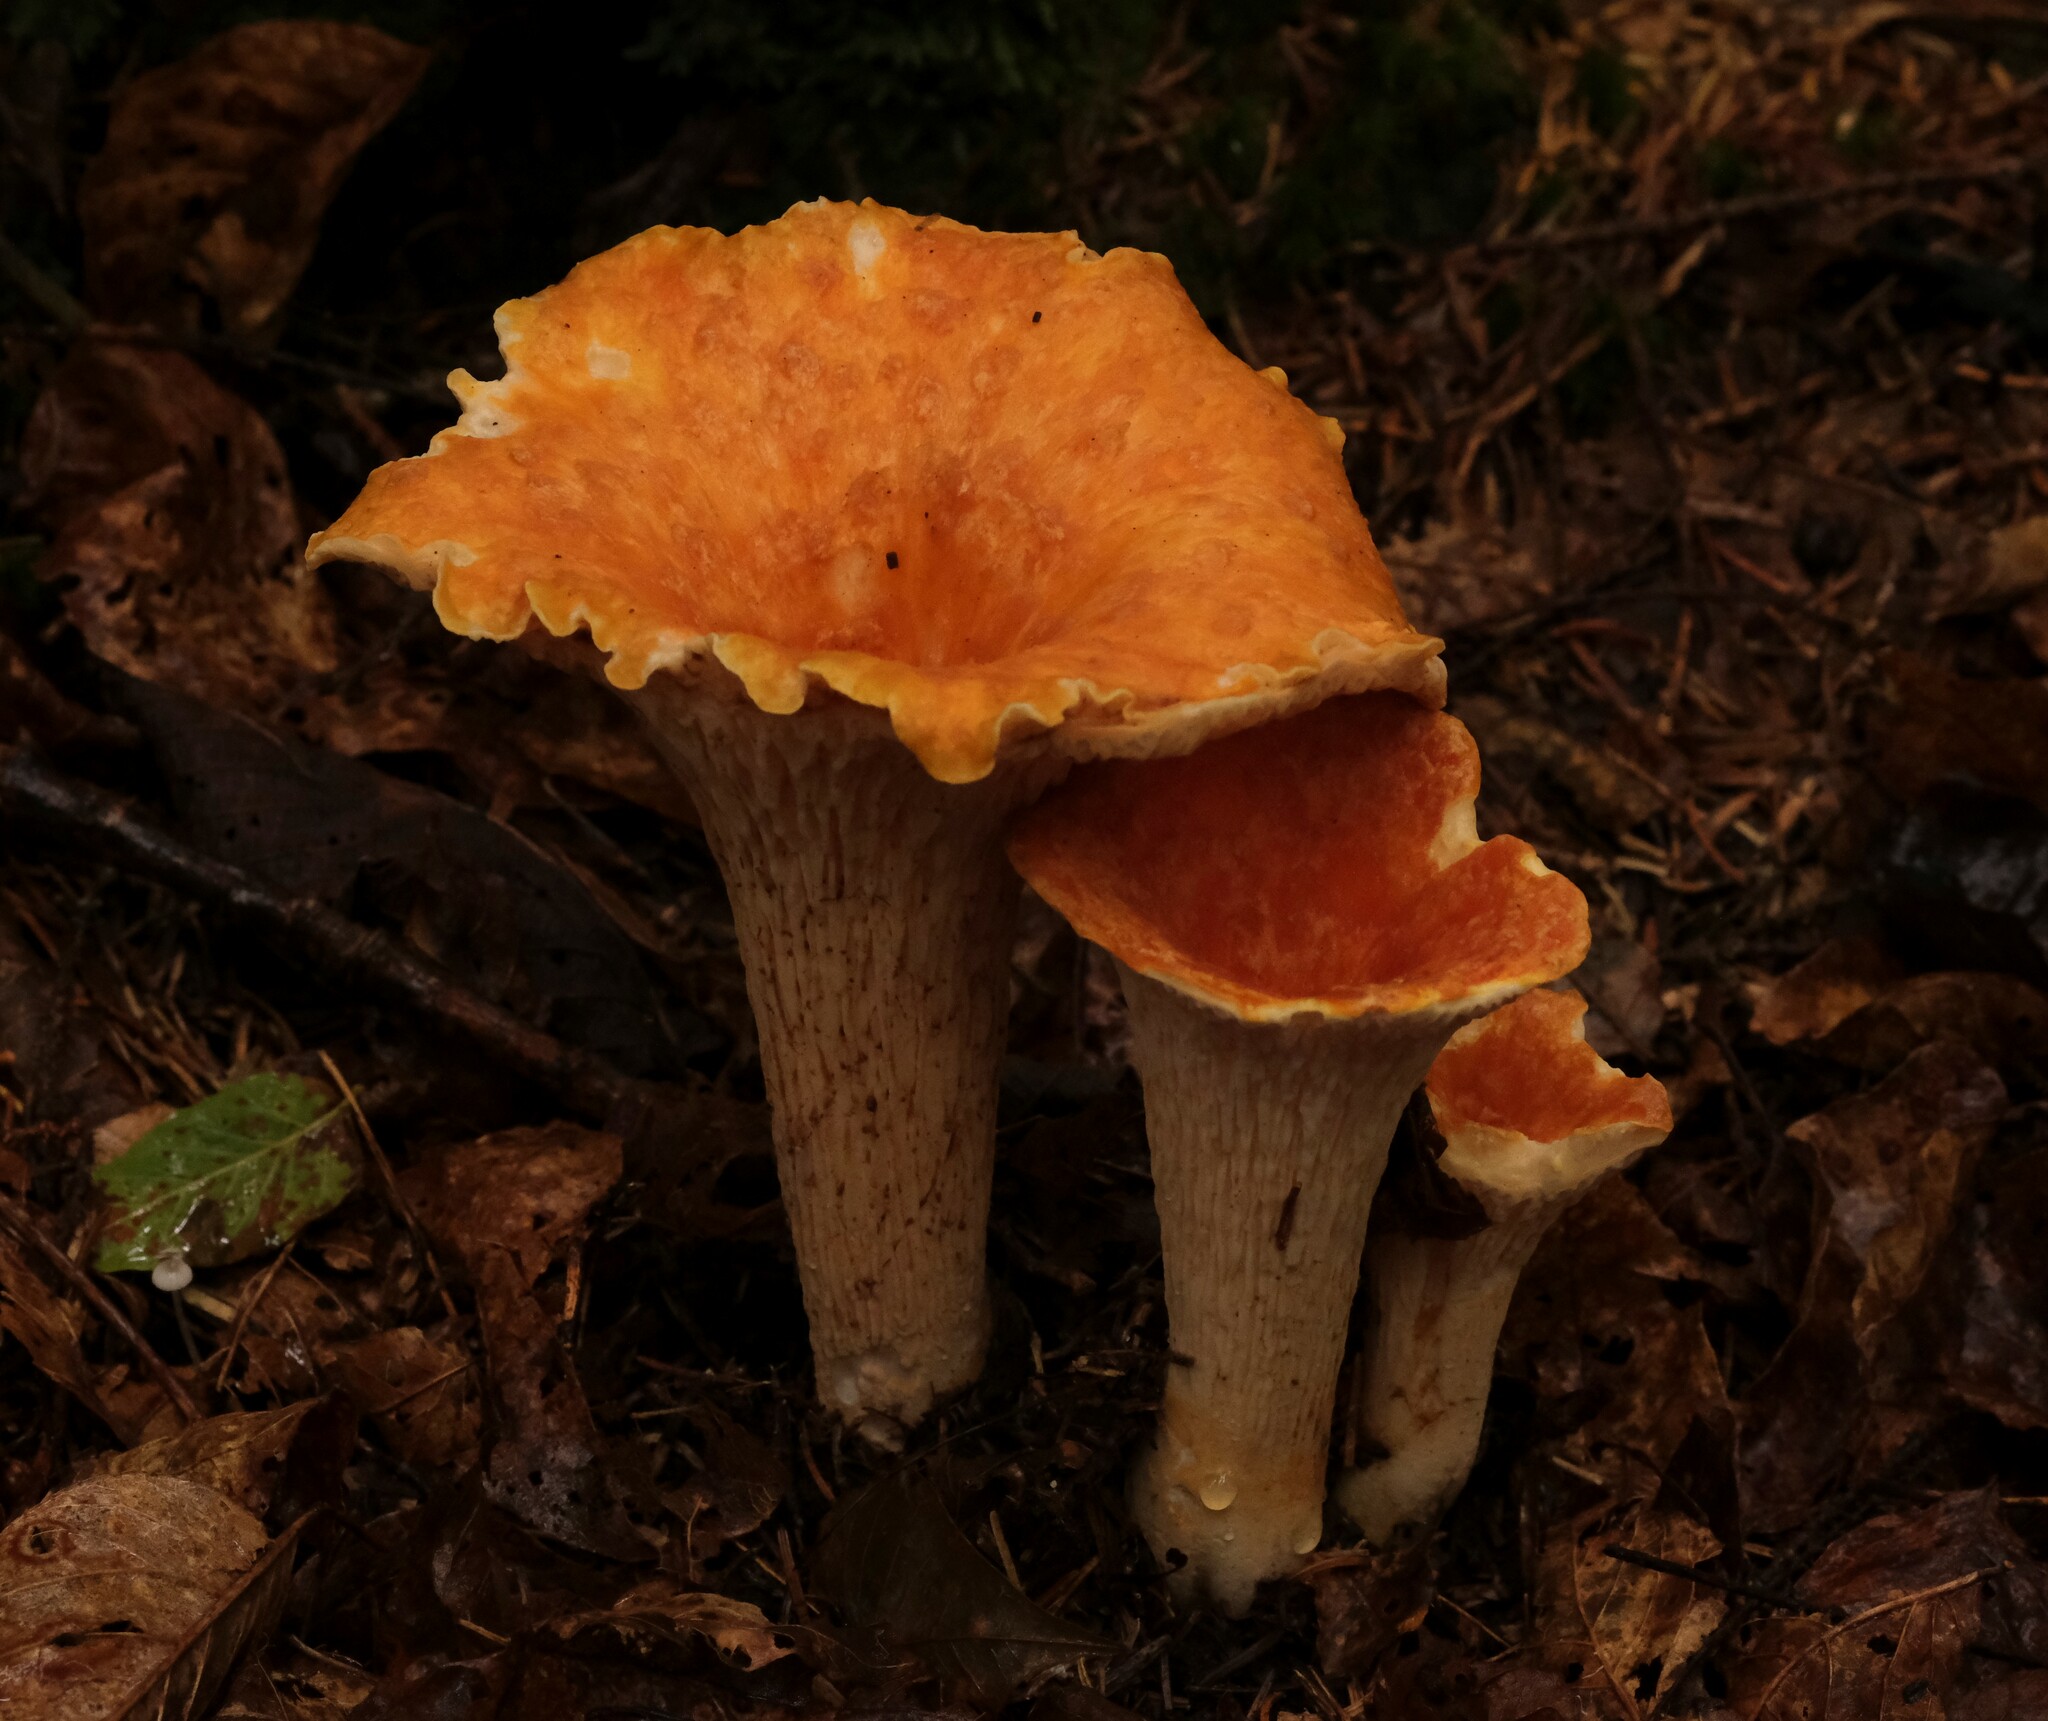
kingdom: Fungi
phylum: Basidiomycota
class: Agaricomycetes
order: Gomphales
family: Gomphaceae
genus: Turbinellus
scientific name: Turbinellus floccosus
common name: Scaly chanterelle
